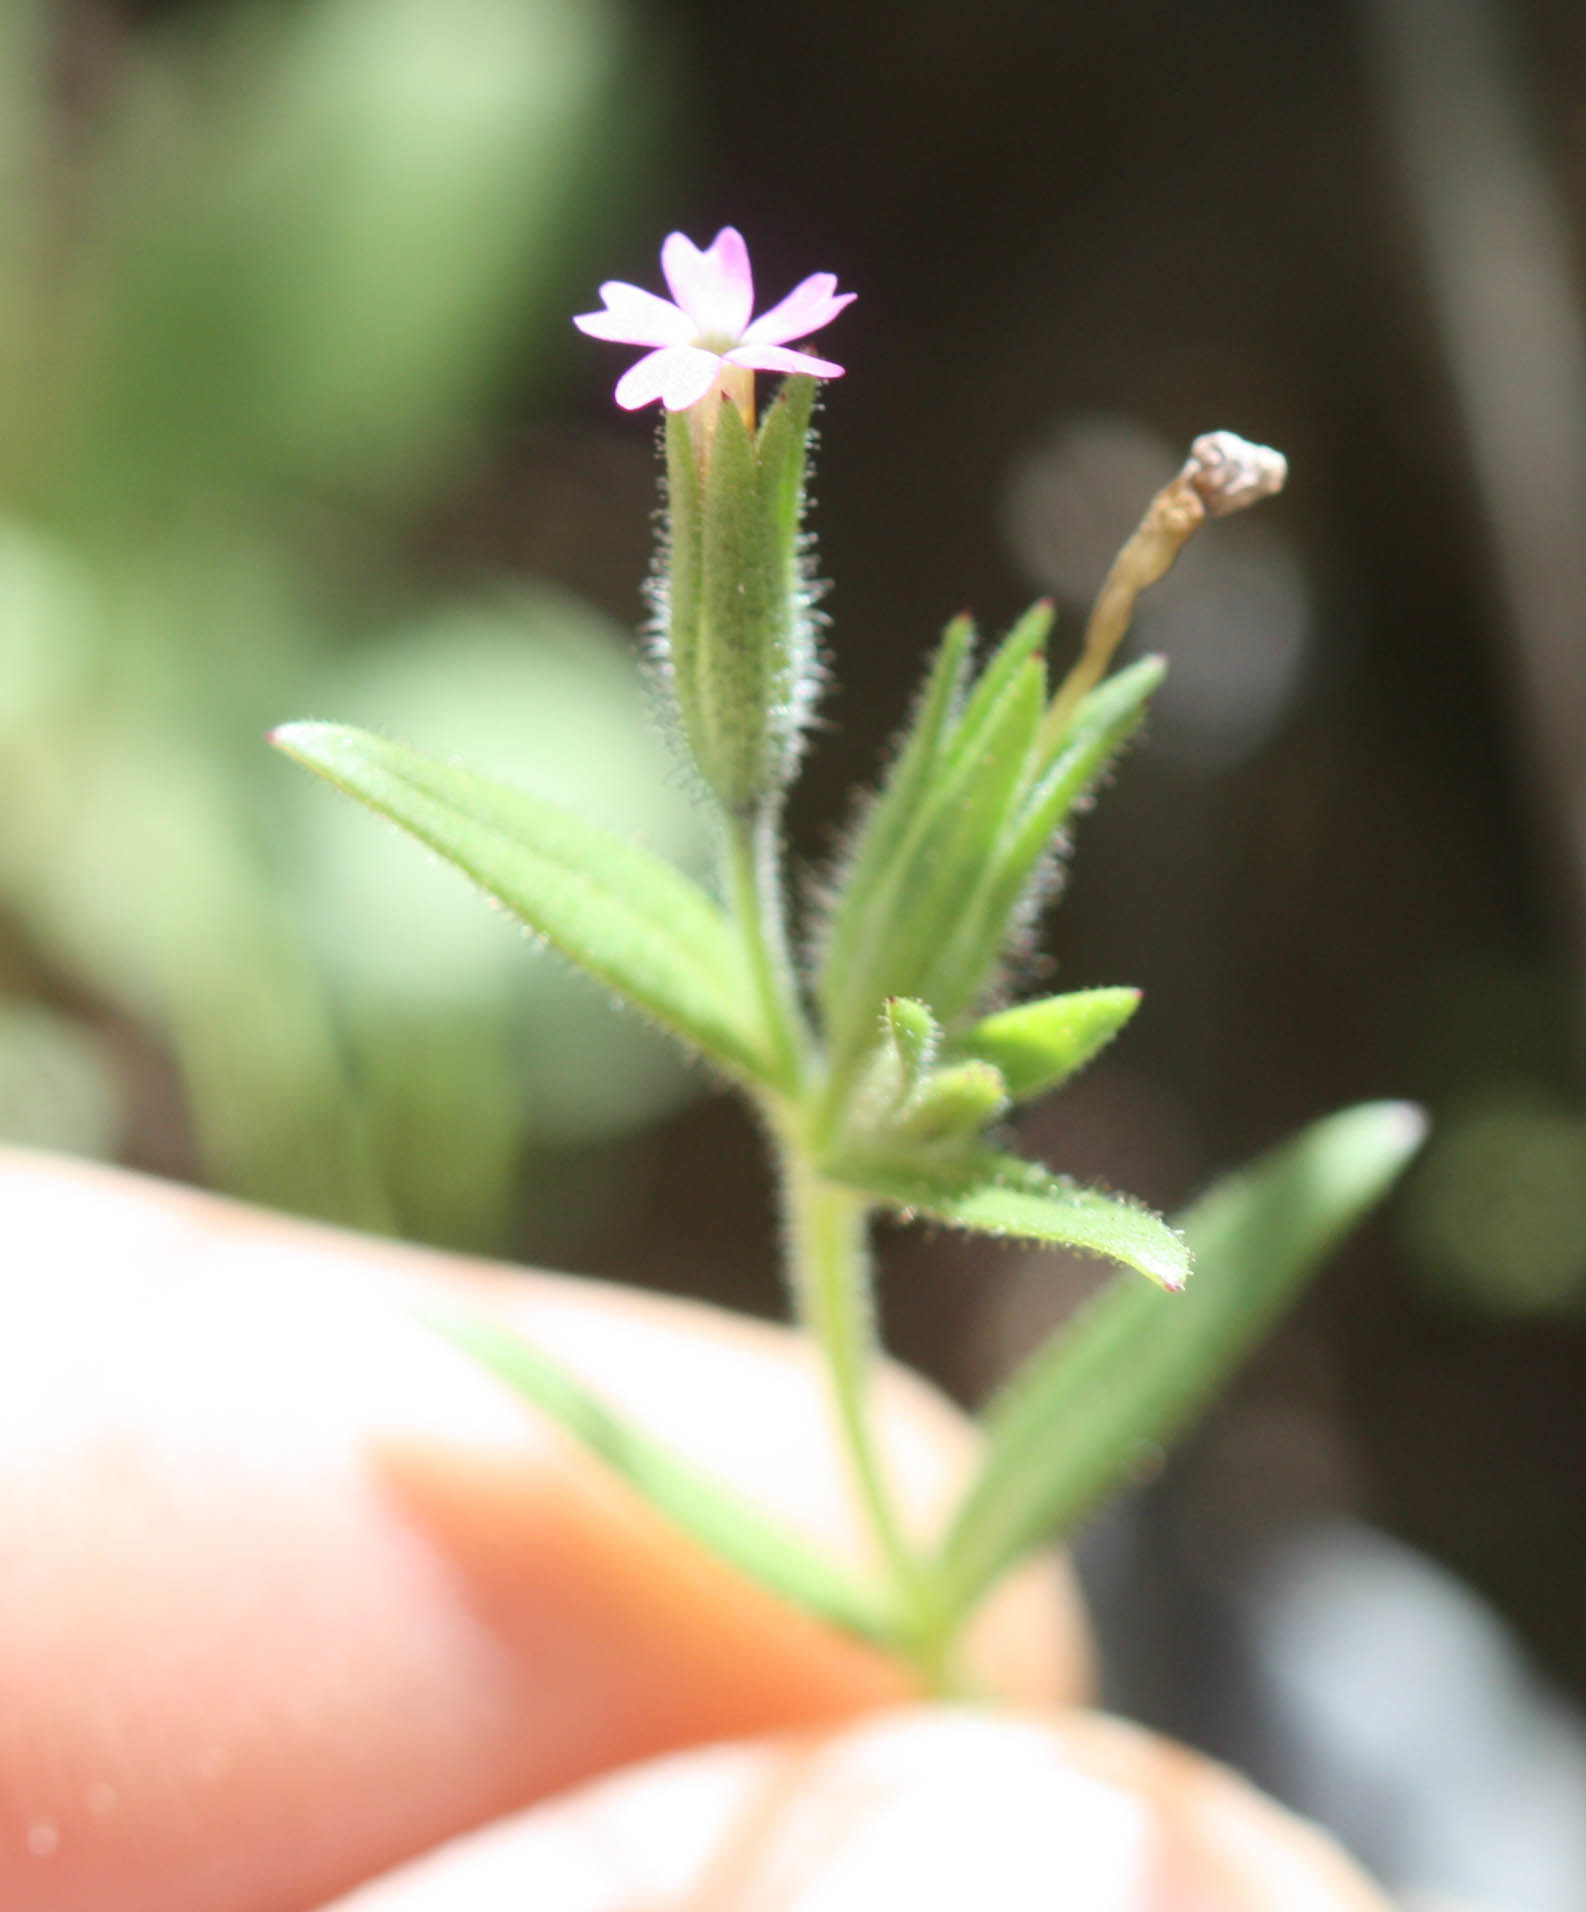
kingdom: Plantae
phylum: Tracheophyta
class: Magnoliopsida
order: Ericales
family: Polemoniaceae
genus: Phlox
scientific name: Phlox gracilis
